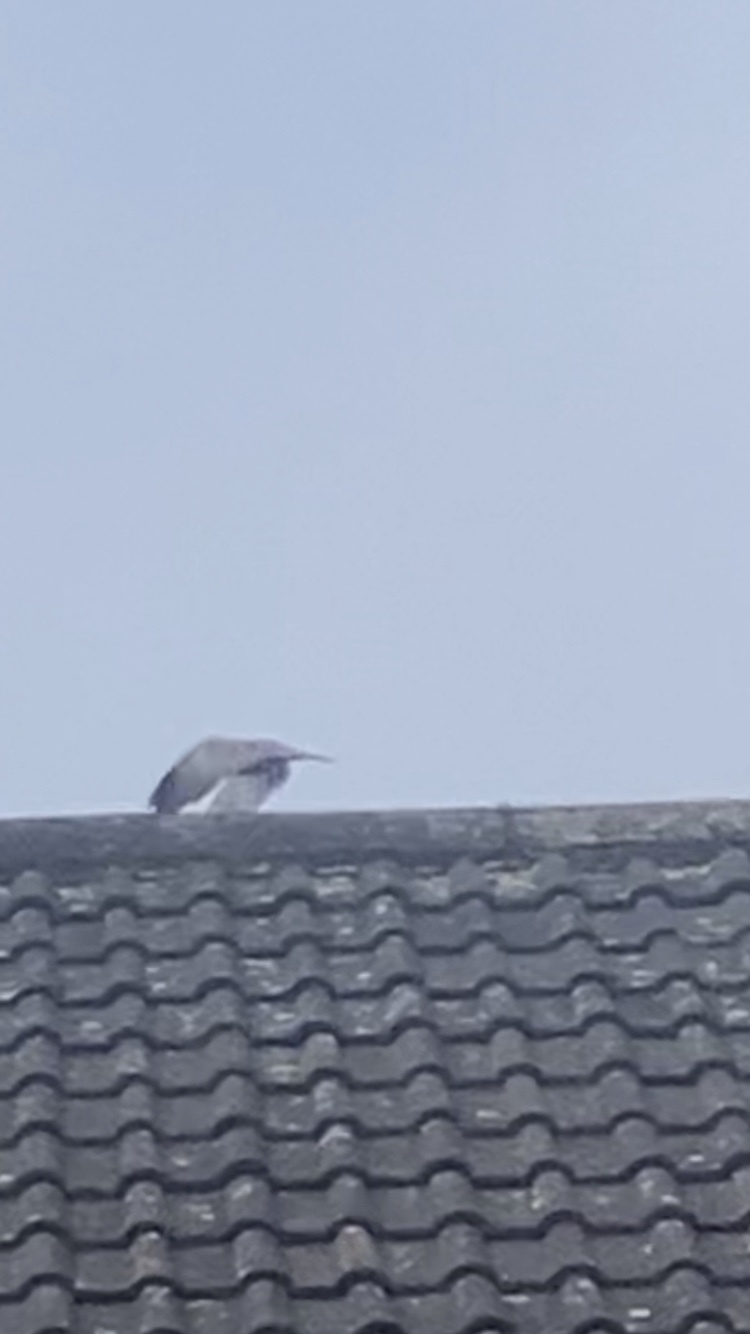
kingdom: Animalia
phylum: Chordata
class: Aves
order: Columbiformes
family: Columbidae
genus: Streptopelia
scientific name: Streptopelia decaocto
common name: Eurasian collared dove
